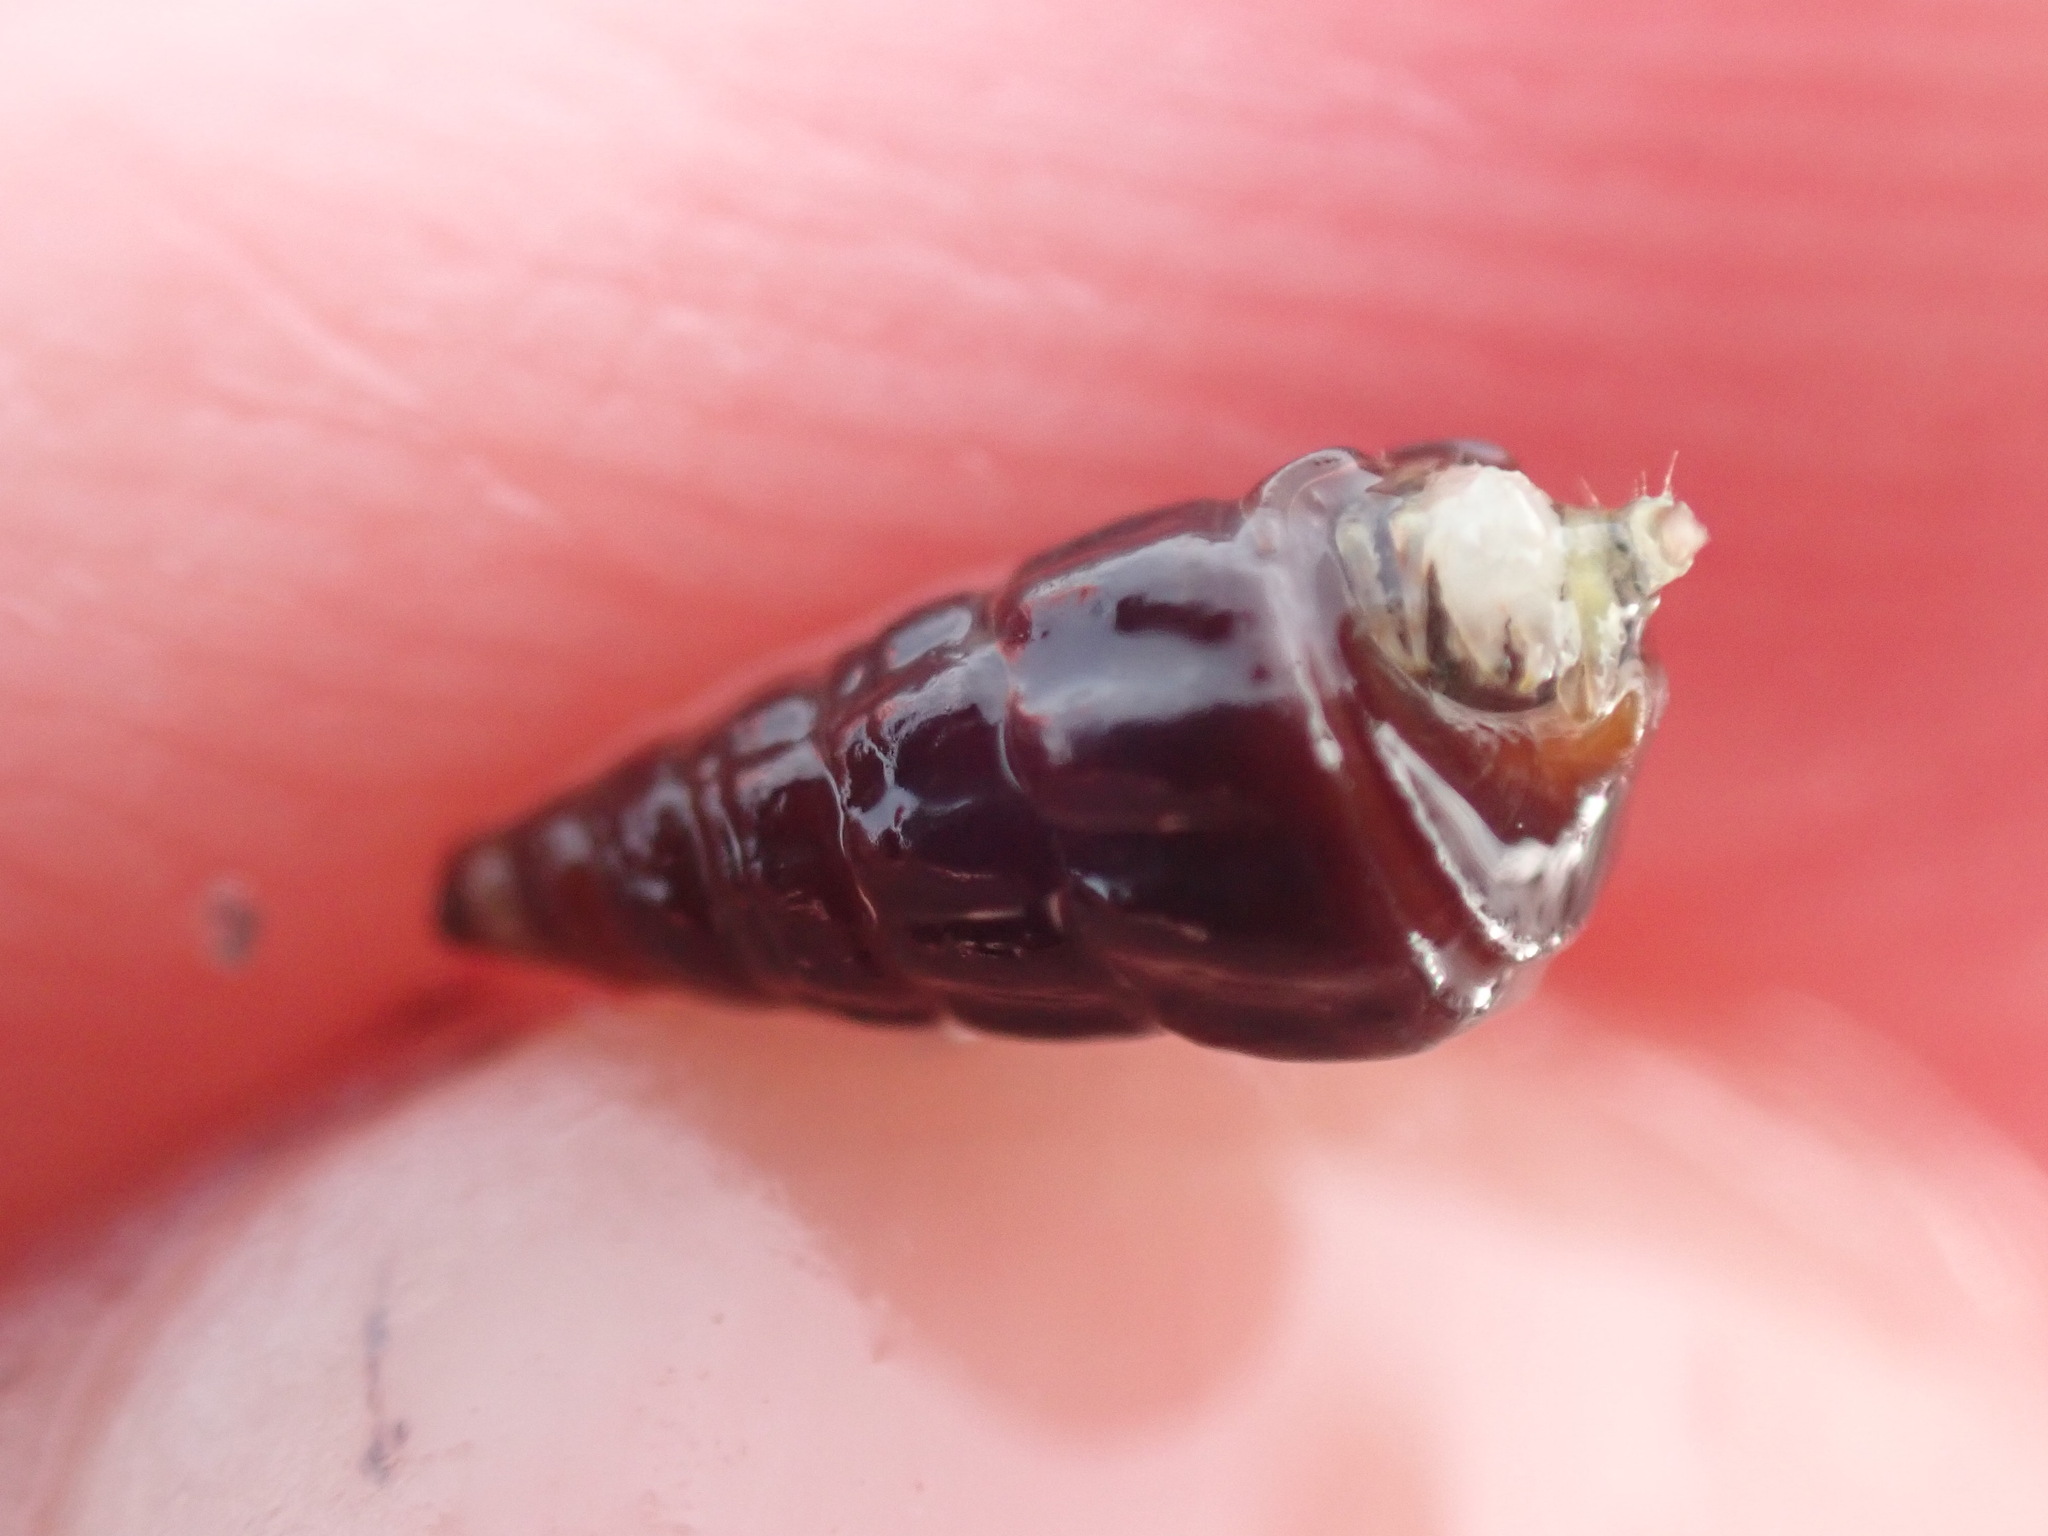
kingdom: Animalia
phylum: Mollusca
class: Gastropoda
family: Batillariidae
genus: Zeacumantus
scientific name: Zeacumantus subcarinatus
